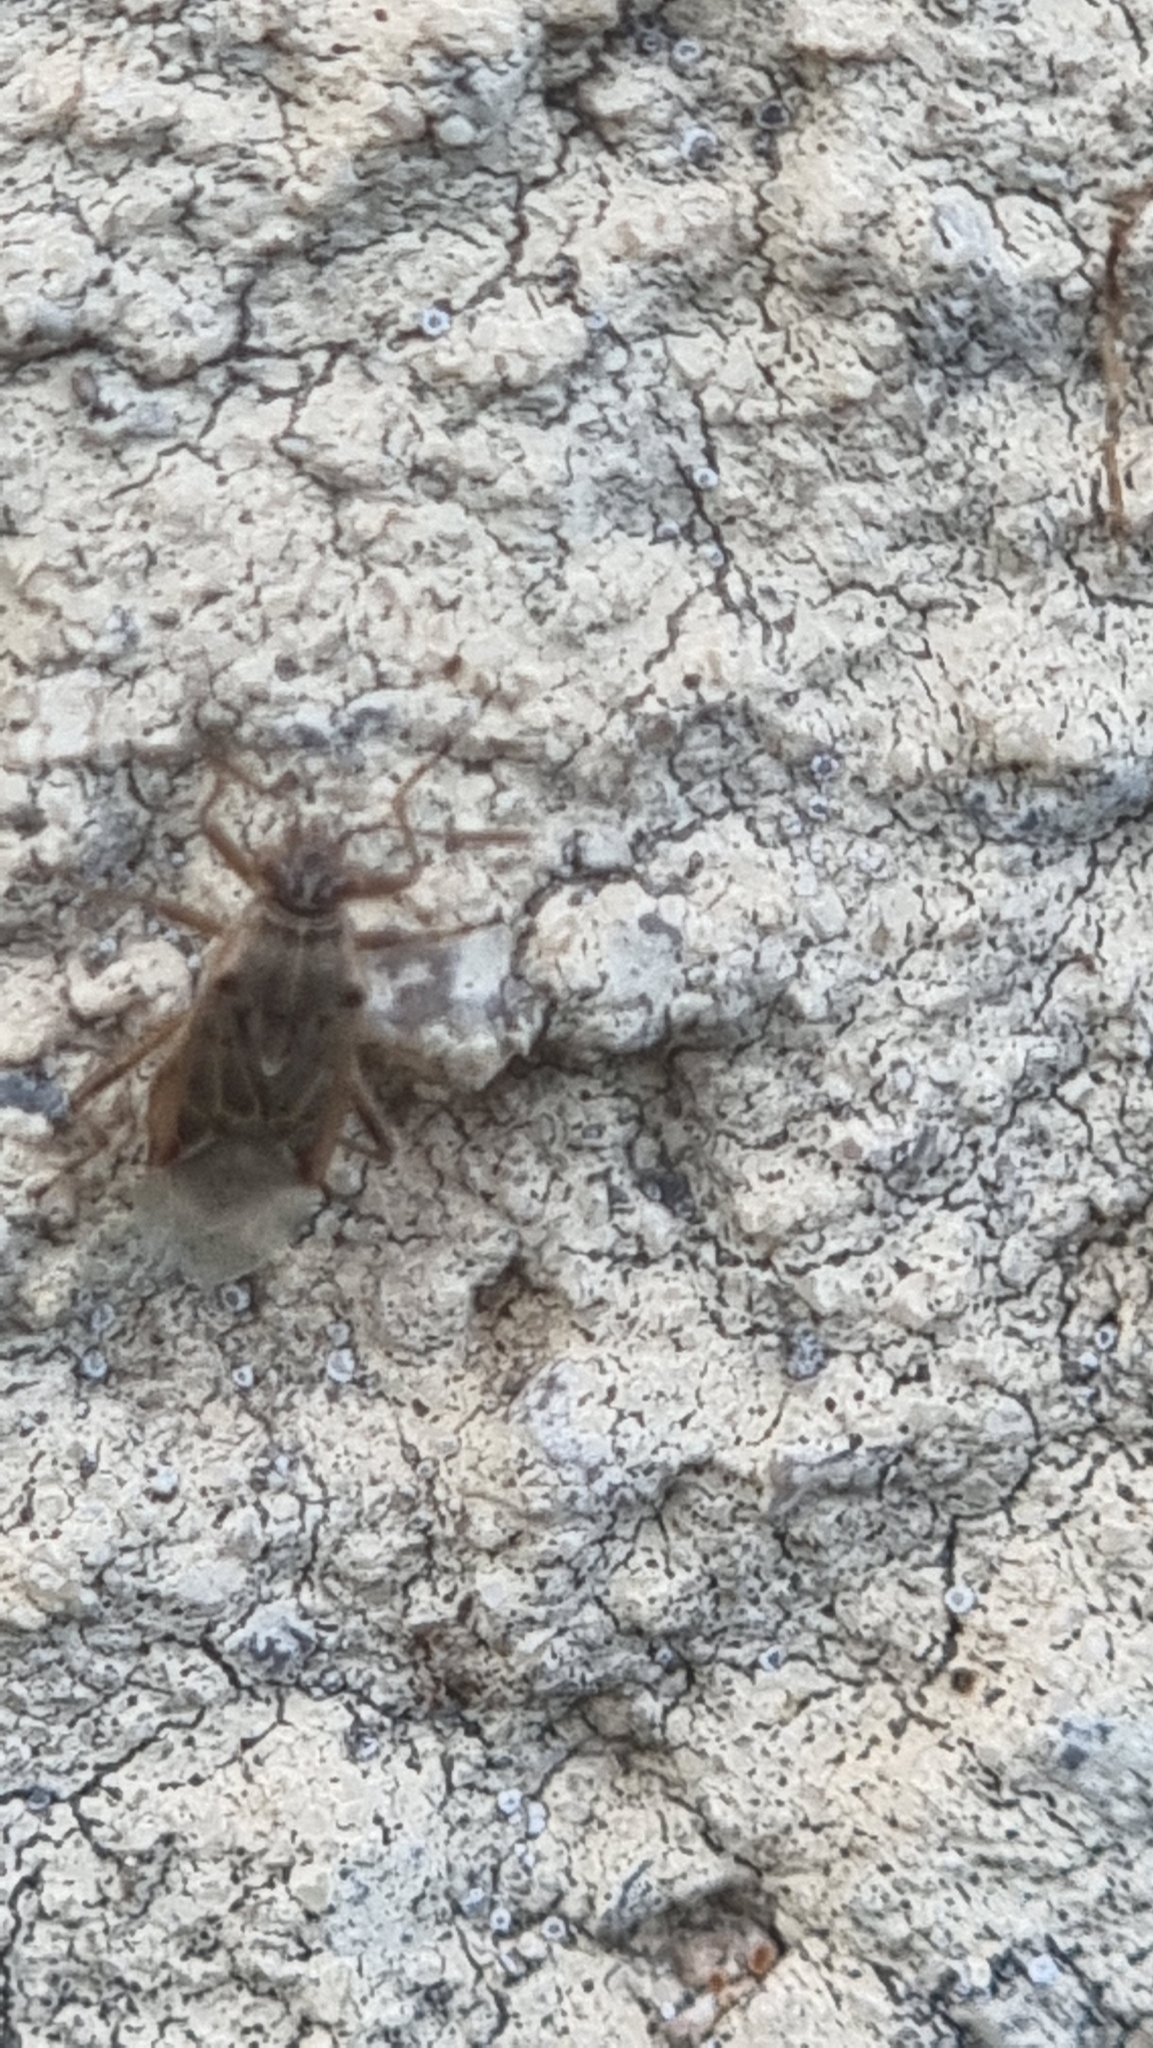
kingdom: Animalia
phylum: Arthropoda
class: Insecta
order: Hemiptera
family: Rhopalidae
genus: Liorhyssus
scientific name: Liorhyssus hyalinus
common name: Scentless plant bug
